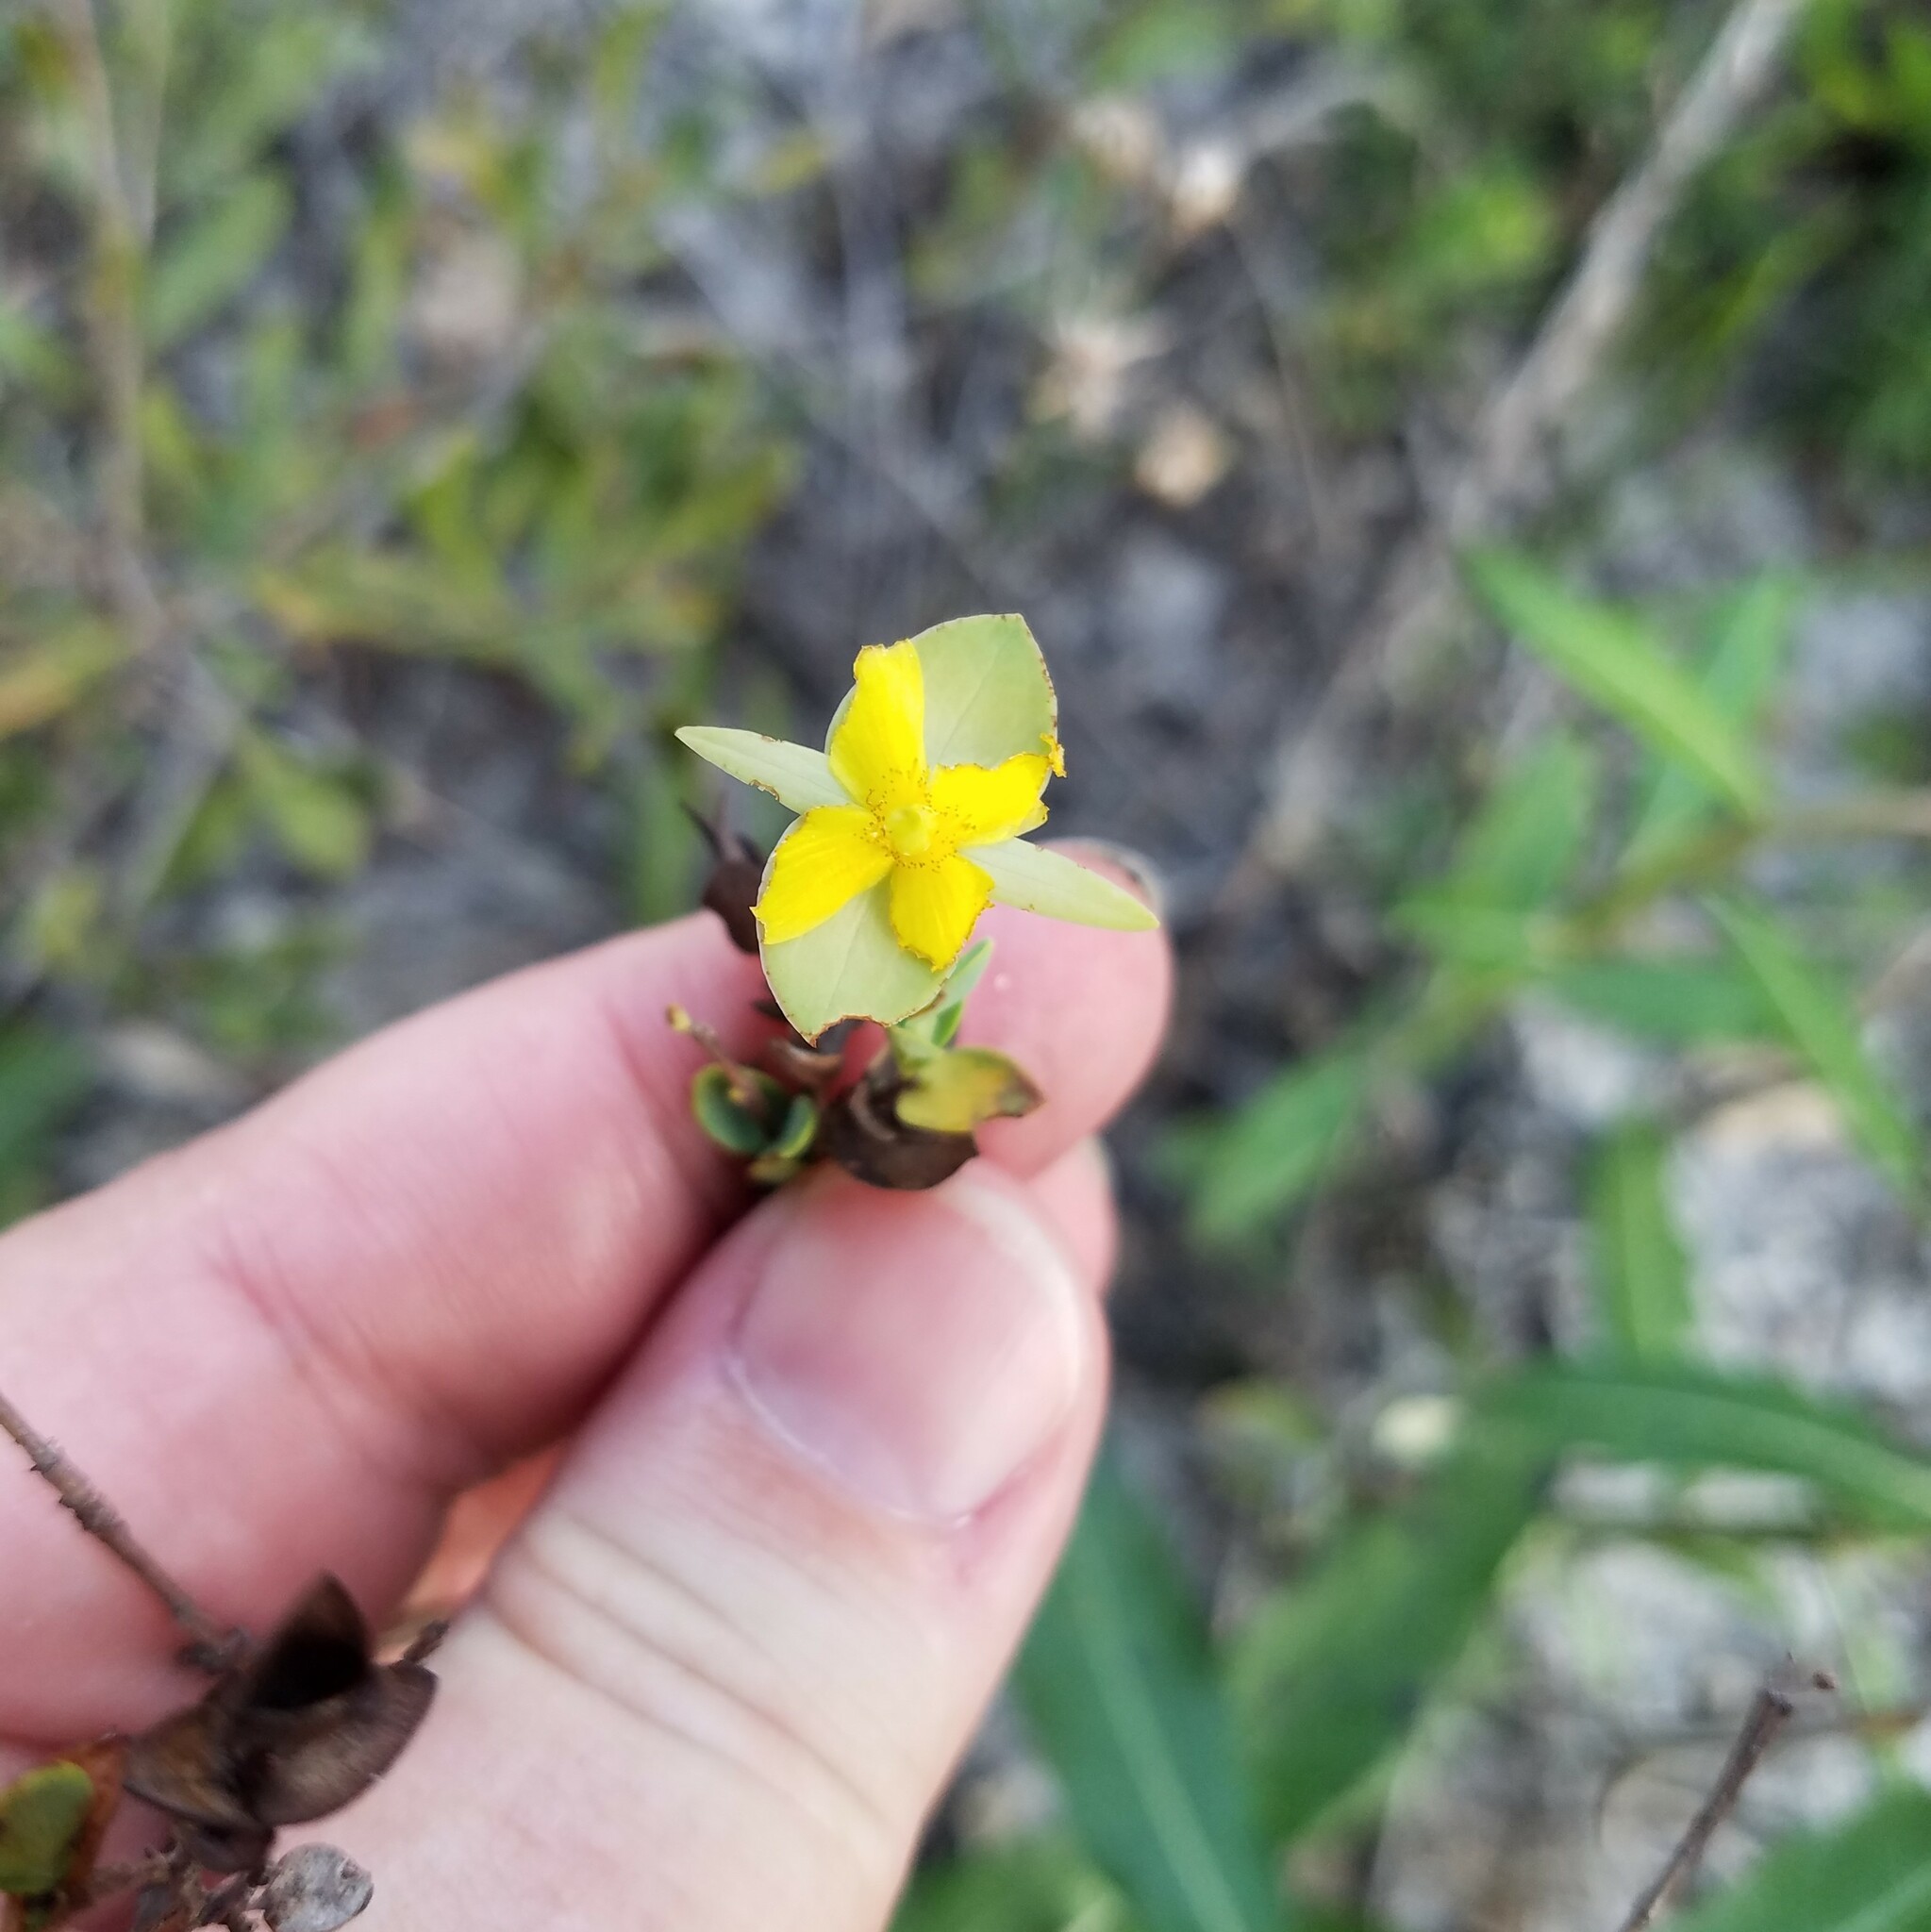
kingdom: Plantae
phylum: Tracheophyta
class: Magnoliopsida
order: Malpighiales
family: Hypericaceae
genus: Hypericum
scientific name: Hypericum tetrapetalum
